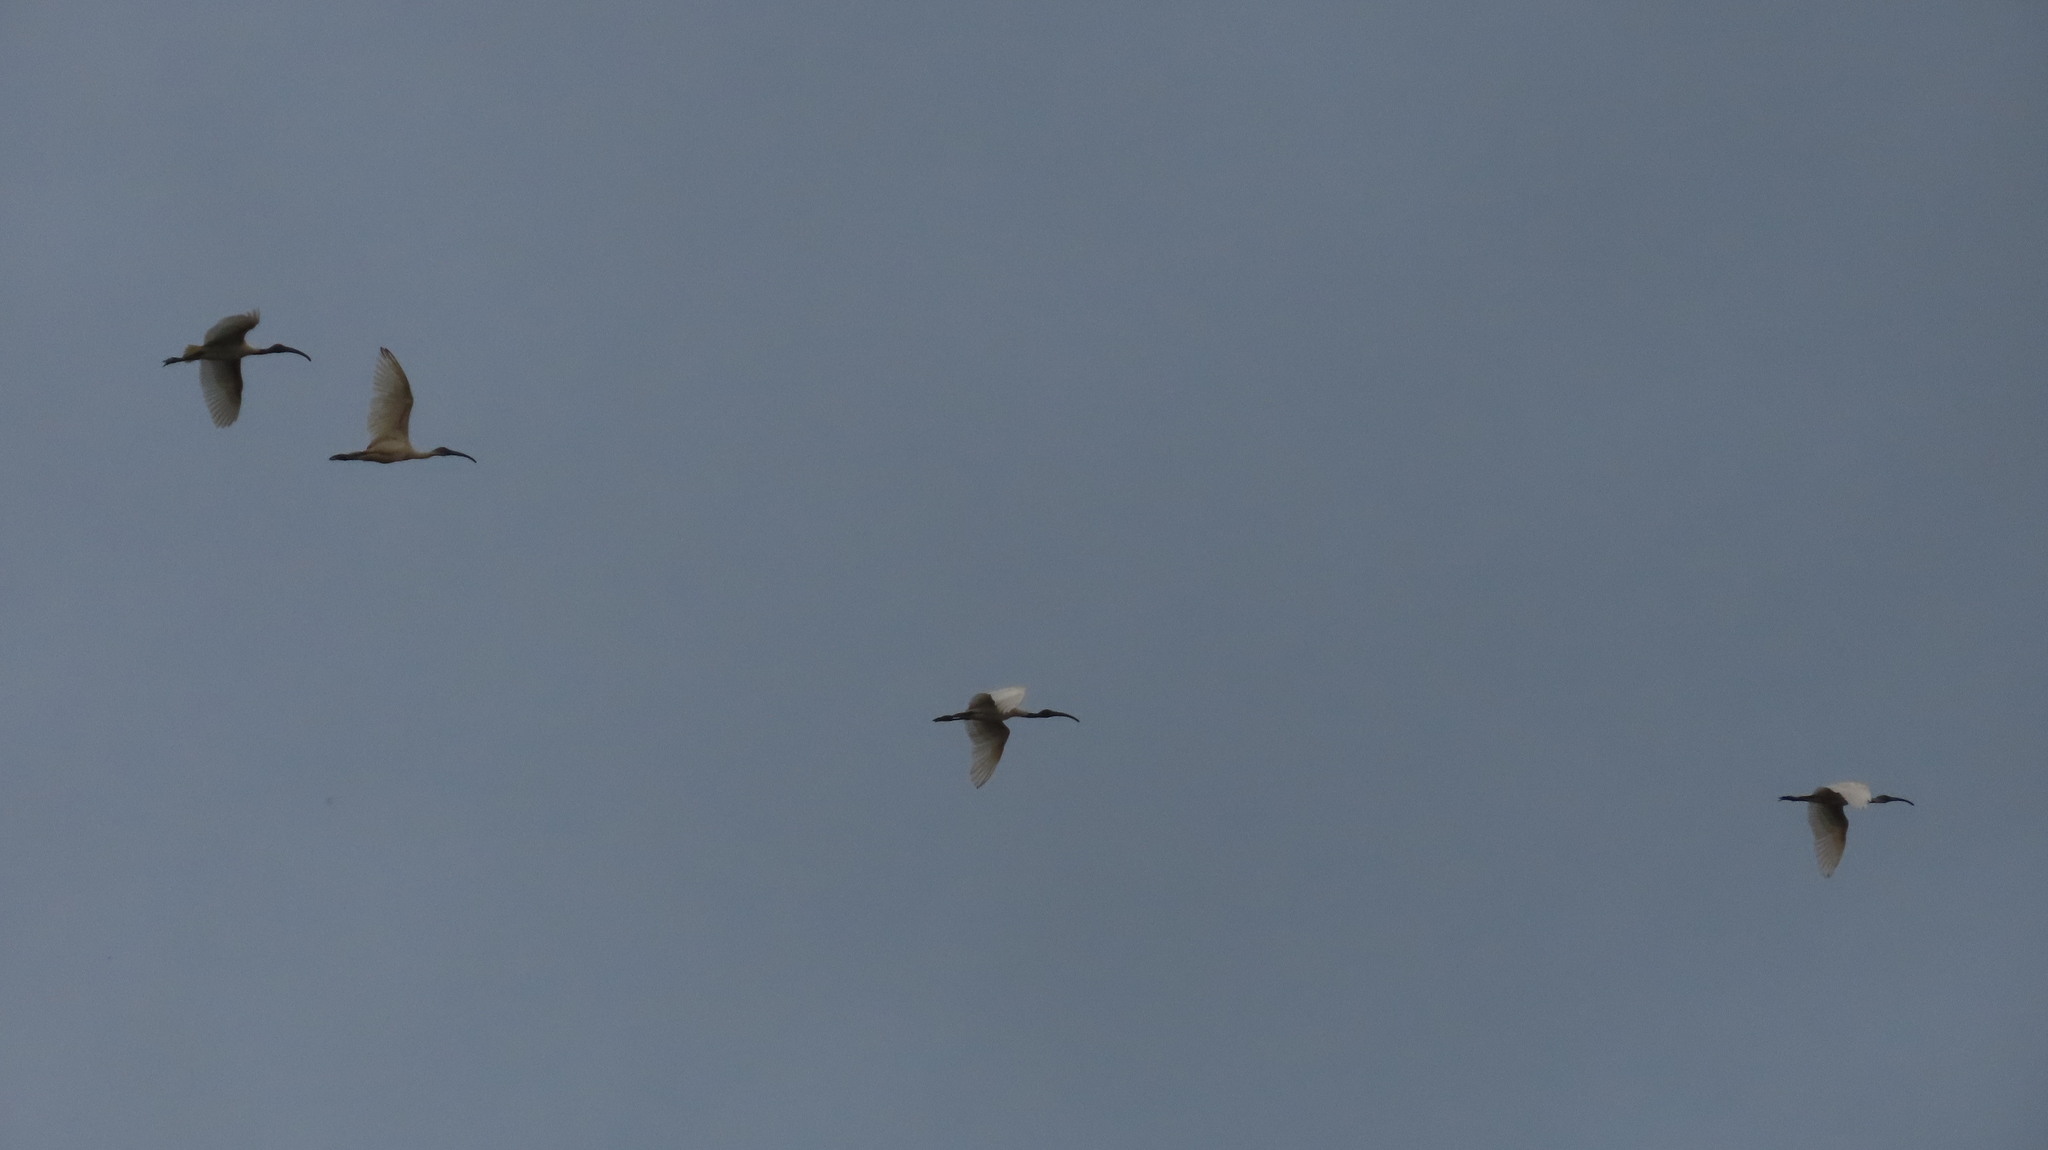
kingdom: Animalia
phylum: Chordata
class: Aves
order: Pelecaniformes
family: Threskiornithidae
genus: Threskiornis
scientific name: Threskiornis melanocephalus
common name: Black-headed ibis
